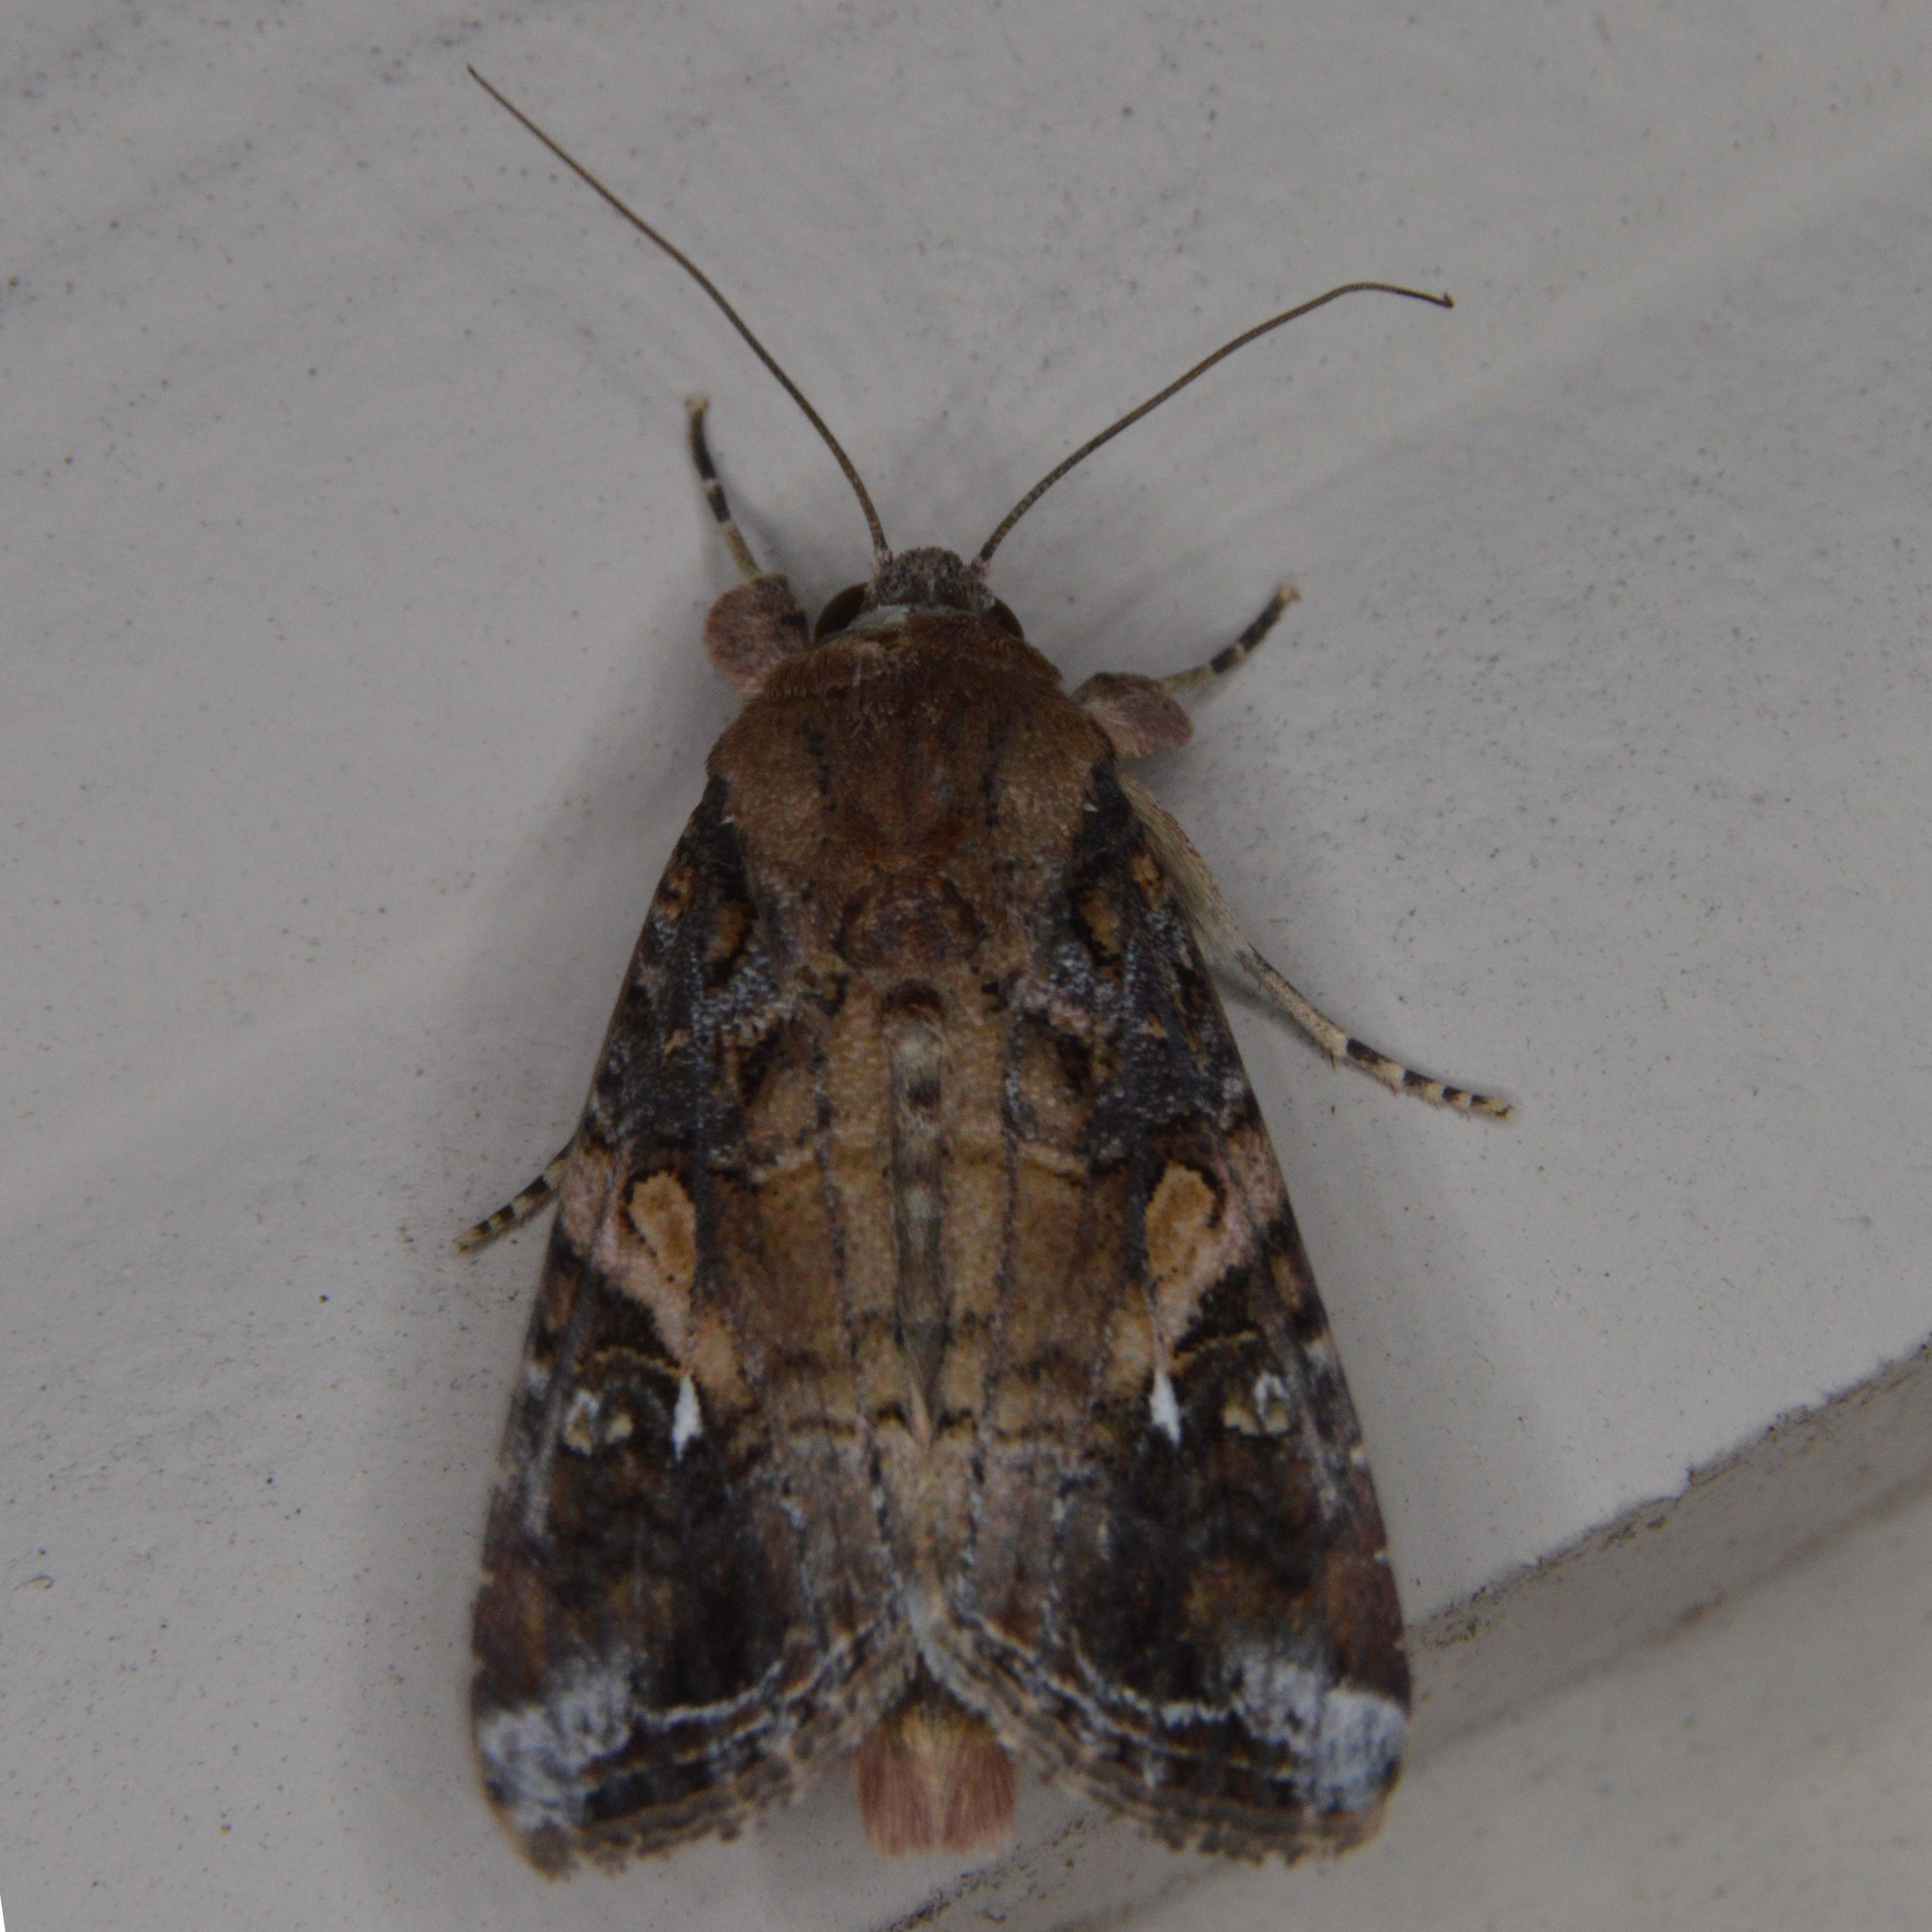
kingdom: Animalia
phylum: Arthropoda
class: Insecta
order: Lepidoptera
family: Noctuidae
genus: Spodoptera
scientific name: Spodoptera frugiperda
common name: Fall armyworm
